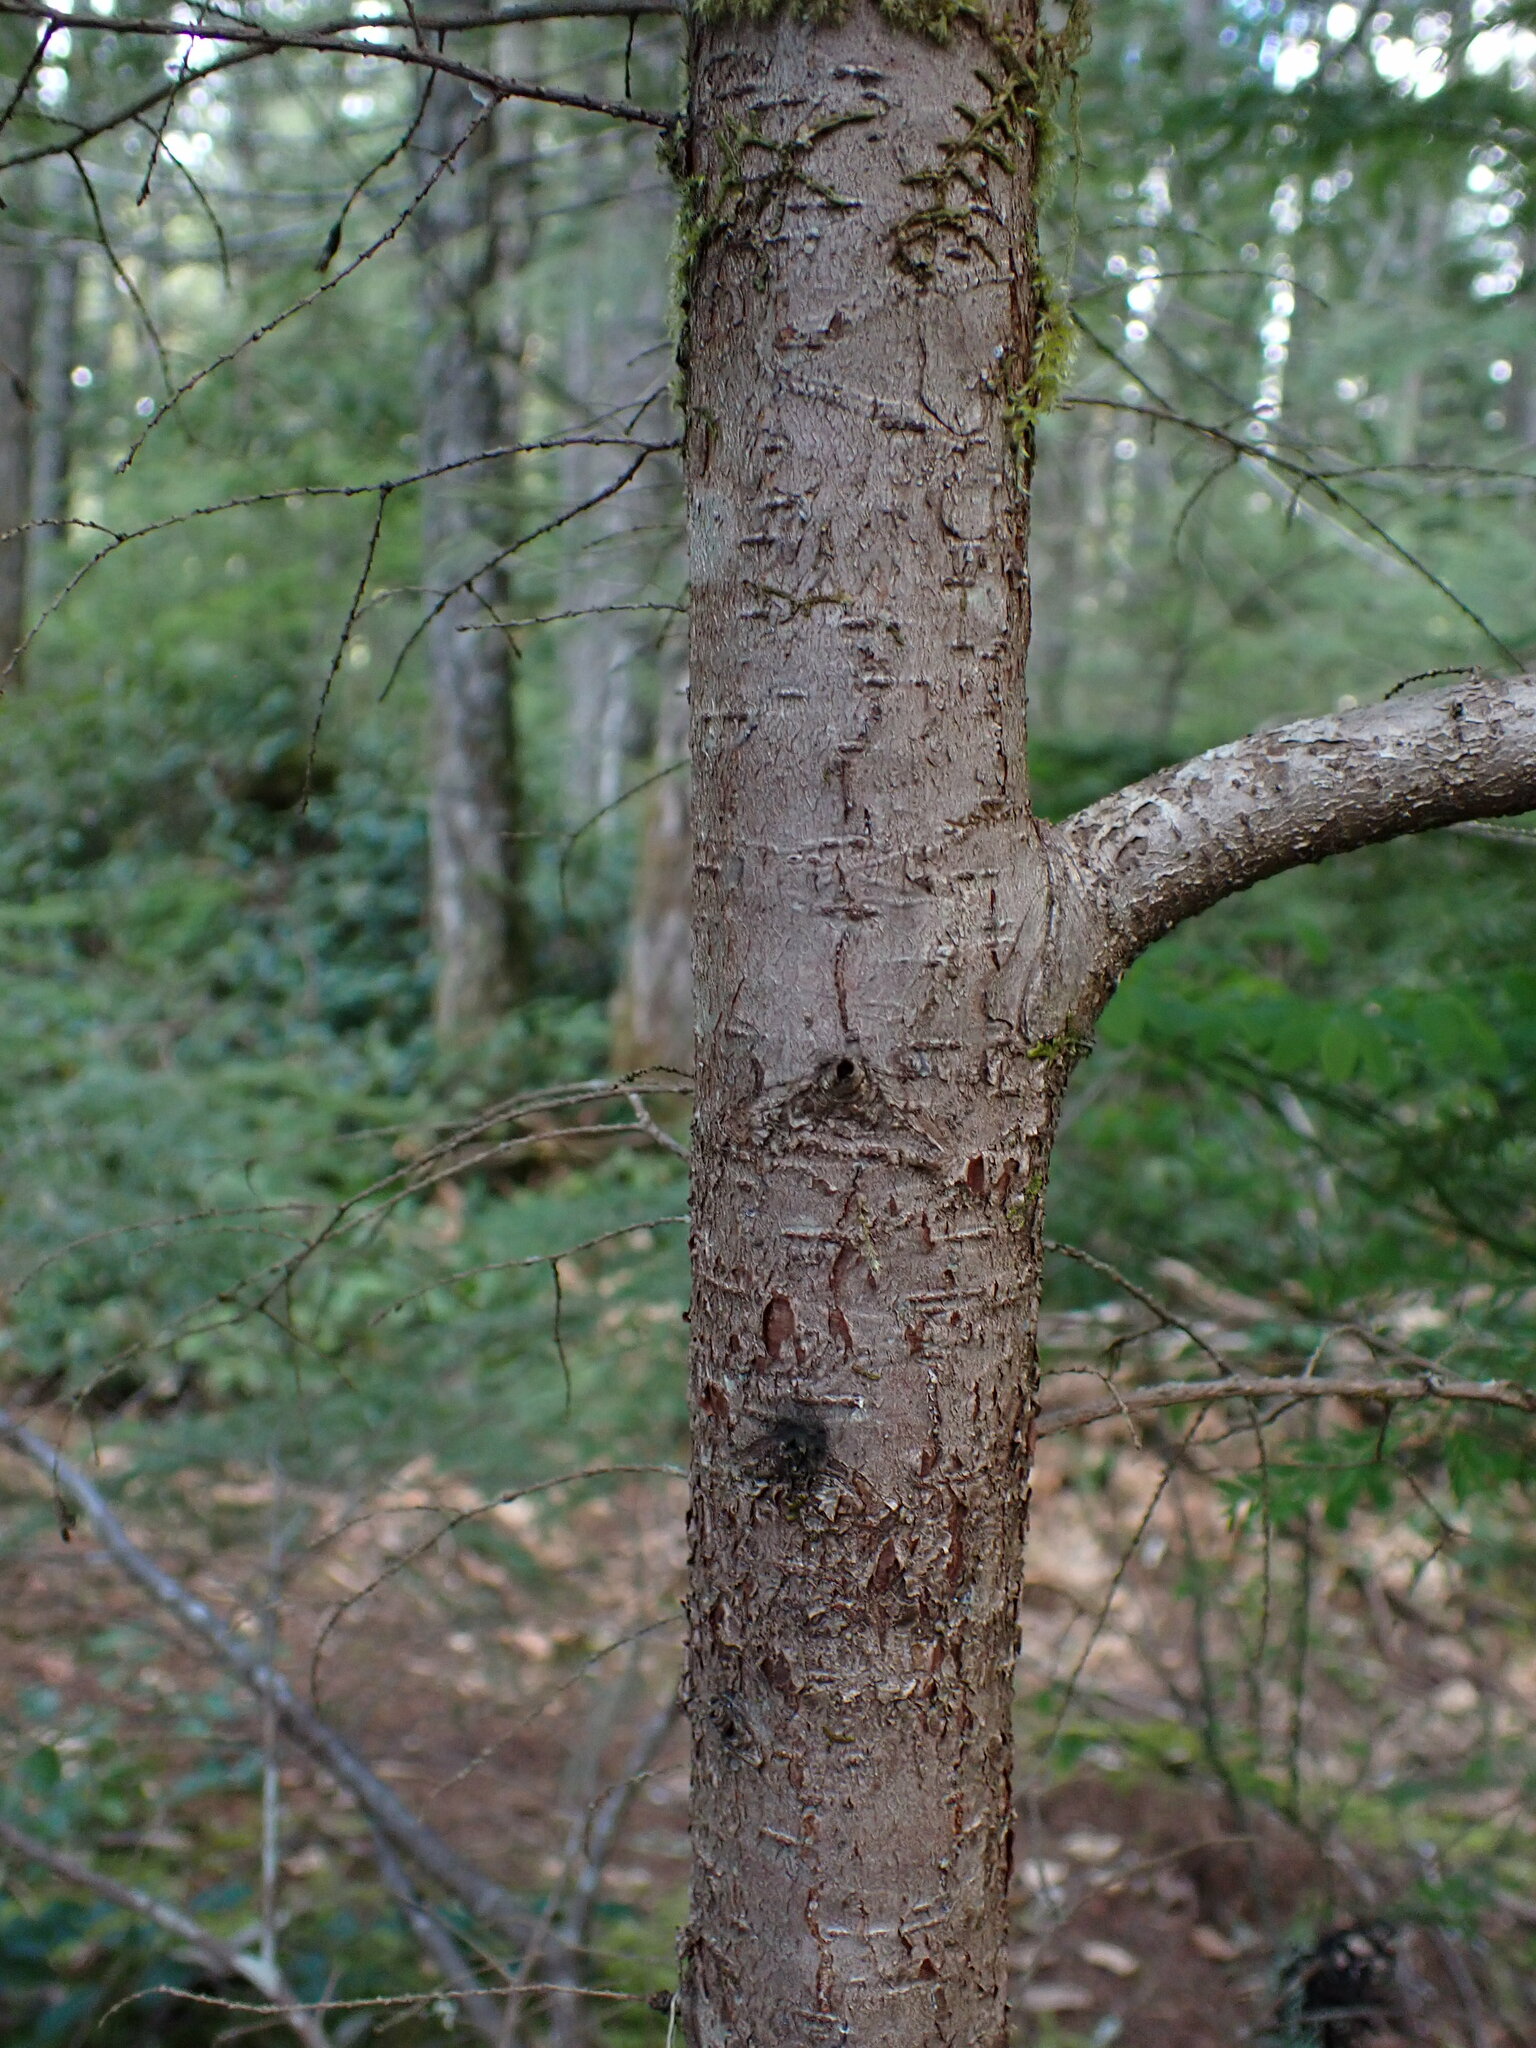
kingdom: Plantae
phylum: Tracheophyta
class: Pinopsida
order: Pinales
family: Pinaceae
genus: Tsuga
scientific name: Tsuga heterophylla
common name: Western hemlock
